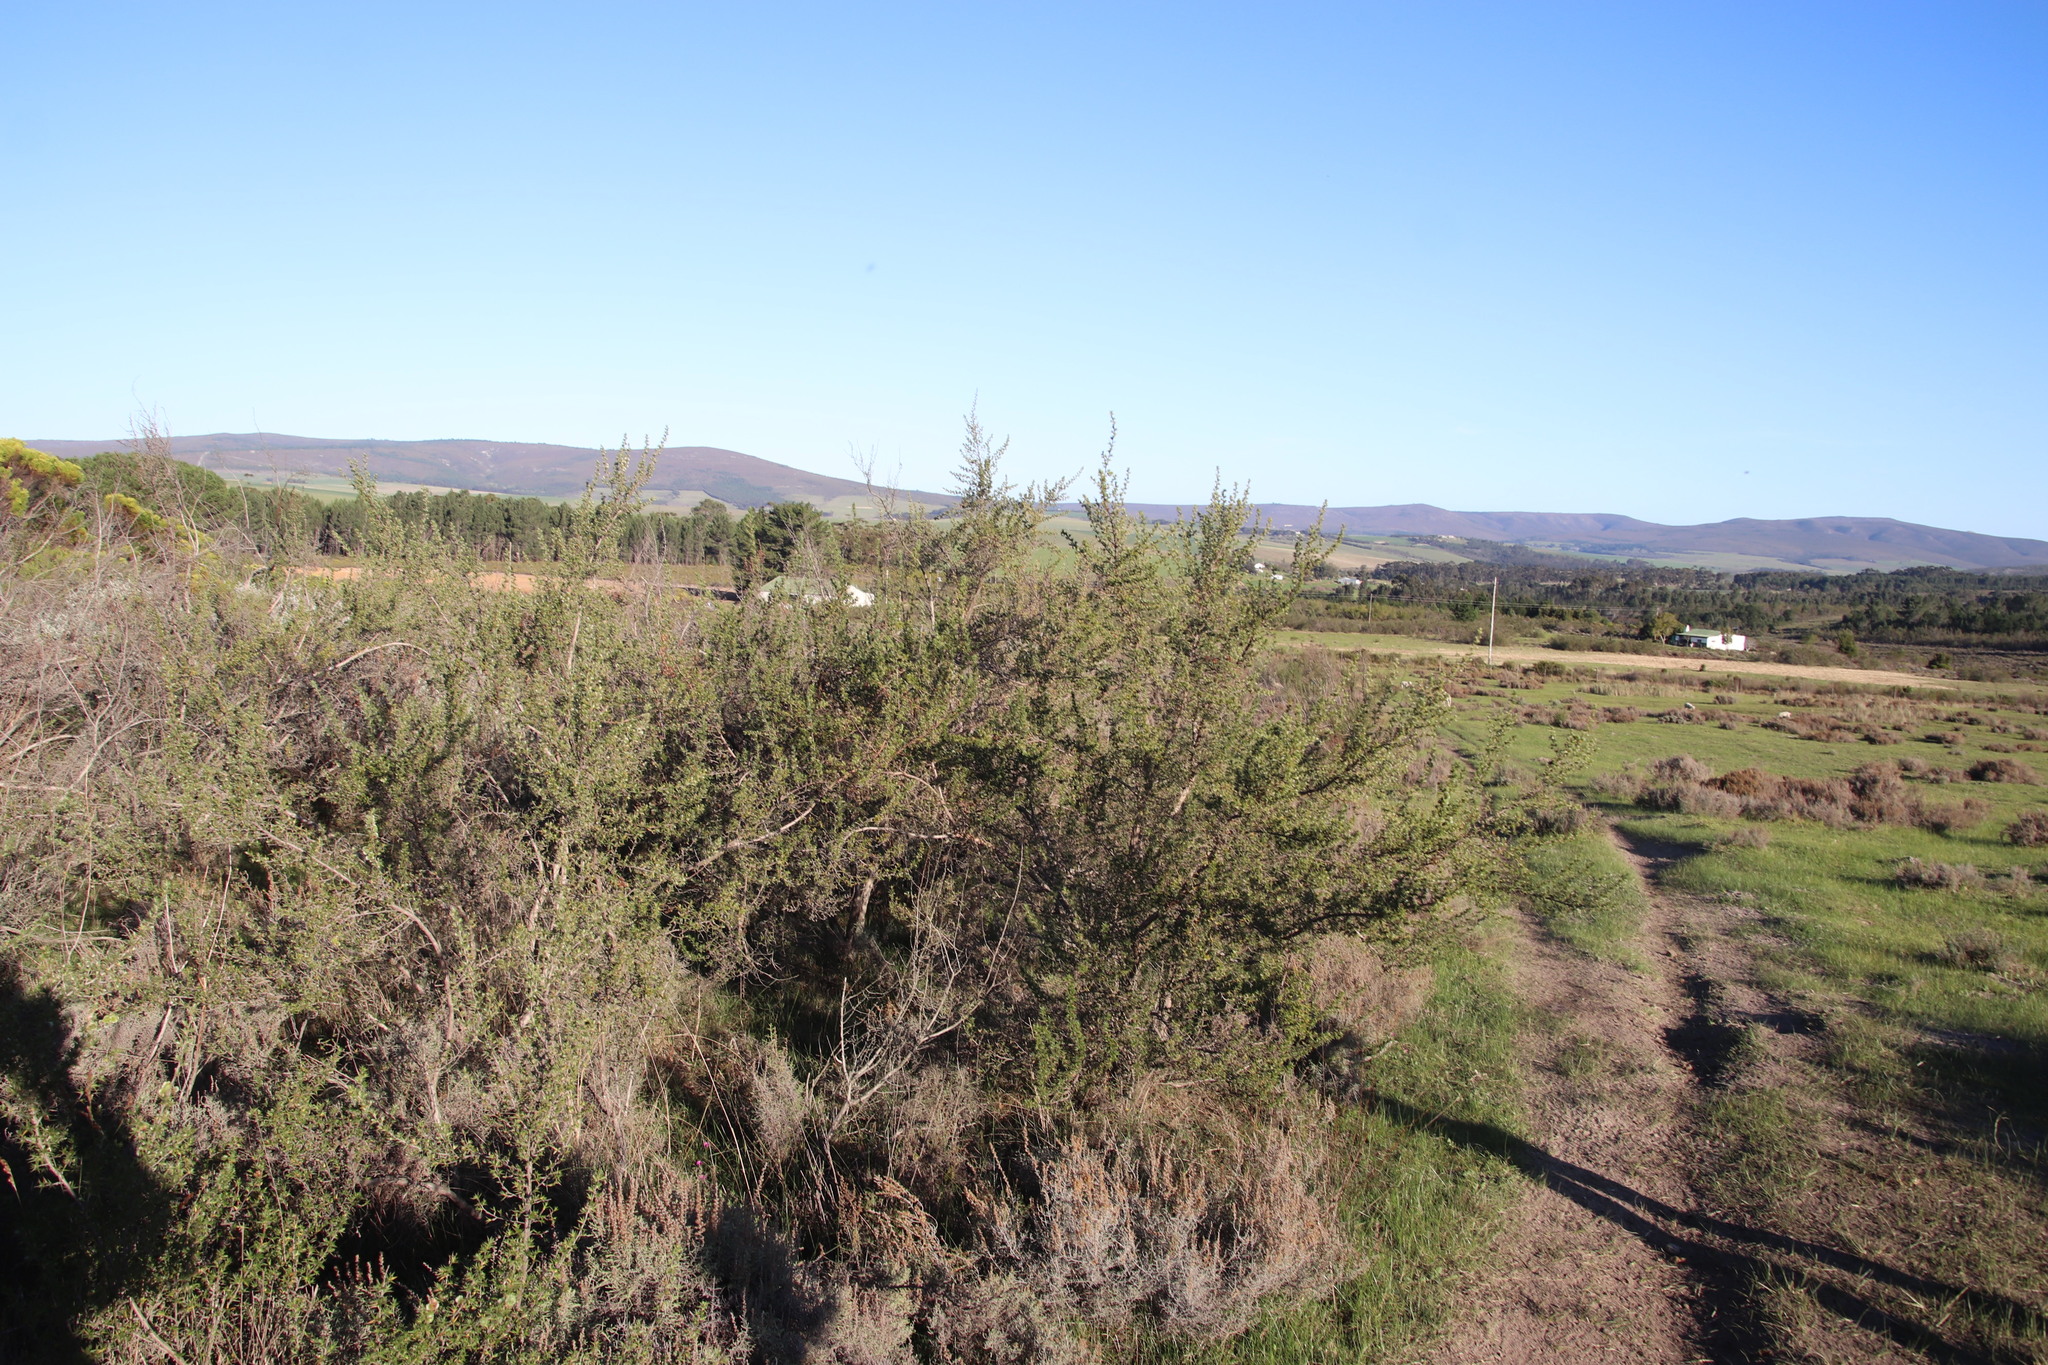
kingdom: Plantae
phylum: Tracheophyta
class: Magnoliopsida
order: Rosales
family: Rosaceae
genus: Cliffortia
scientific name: Cliffortia ruscifolia
